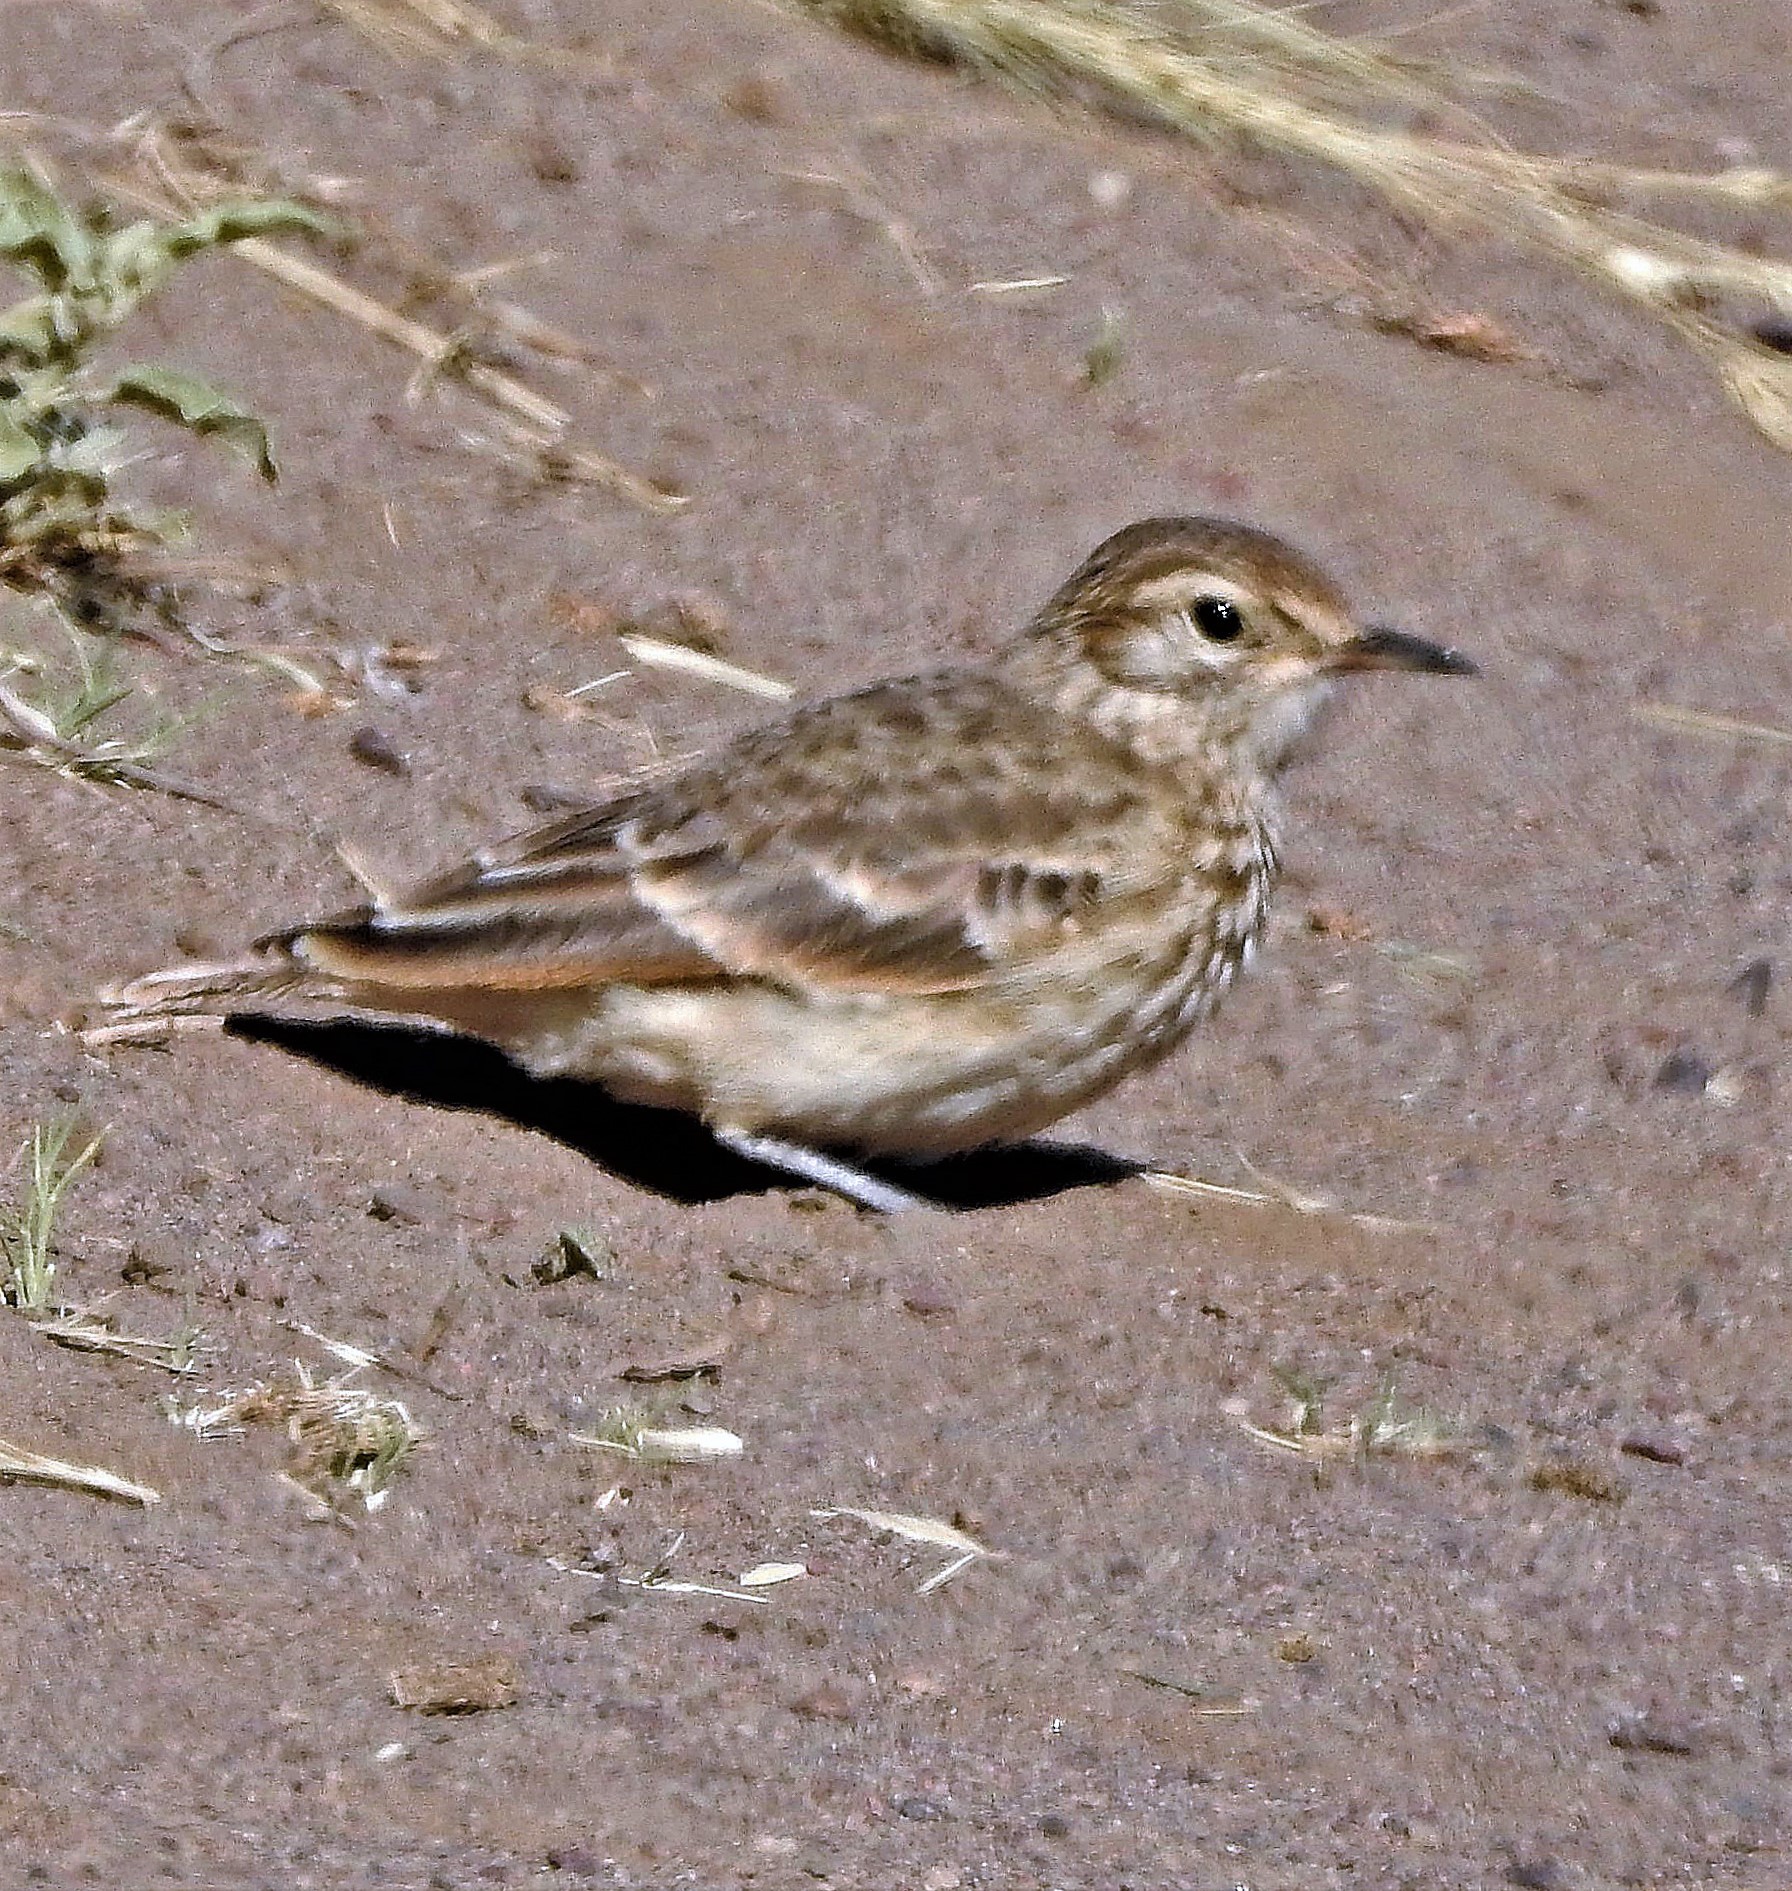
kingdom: Animalia
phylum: Chordata
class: Aves
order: Passeriformes
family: Furnariidae
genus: Geositta
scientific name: Geositta cunicularia
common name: Common miner
